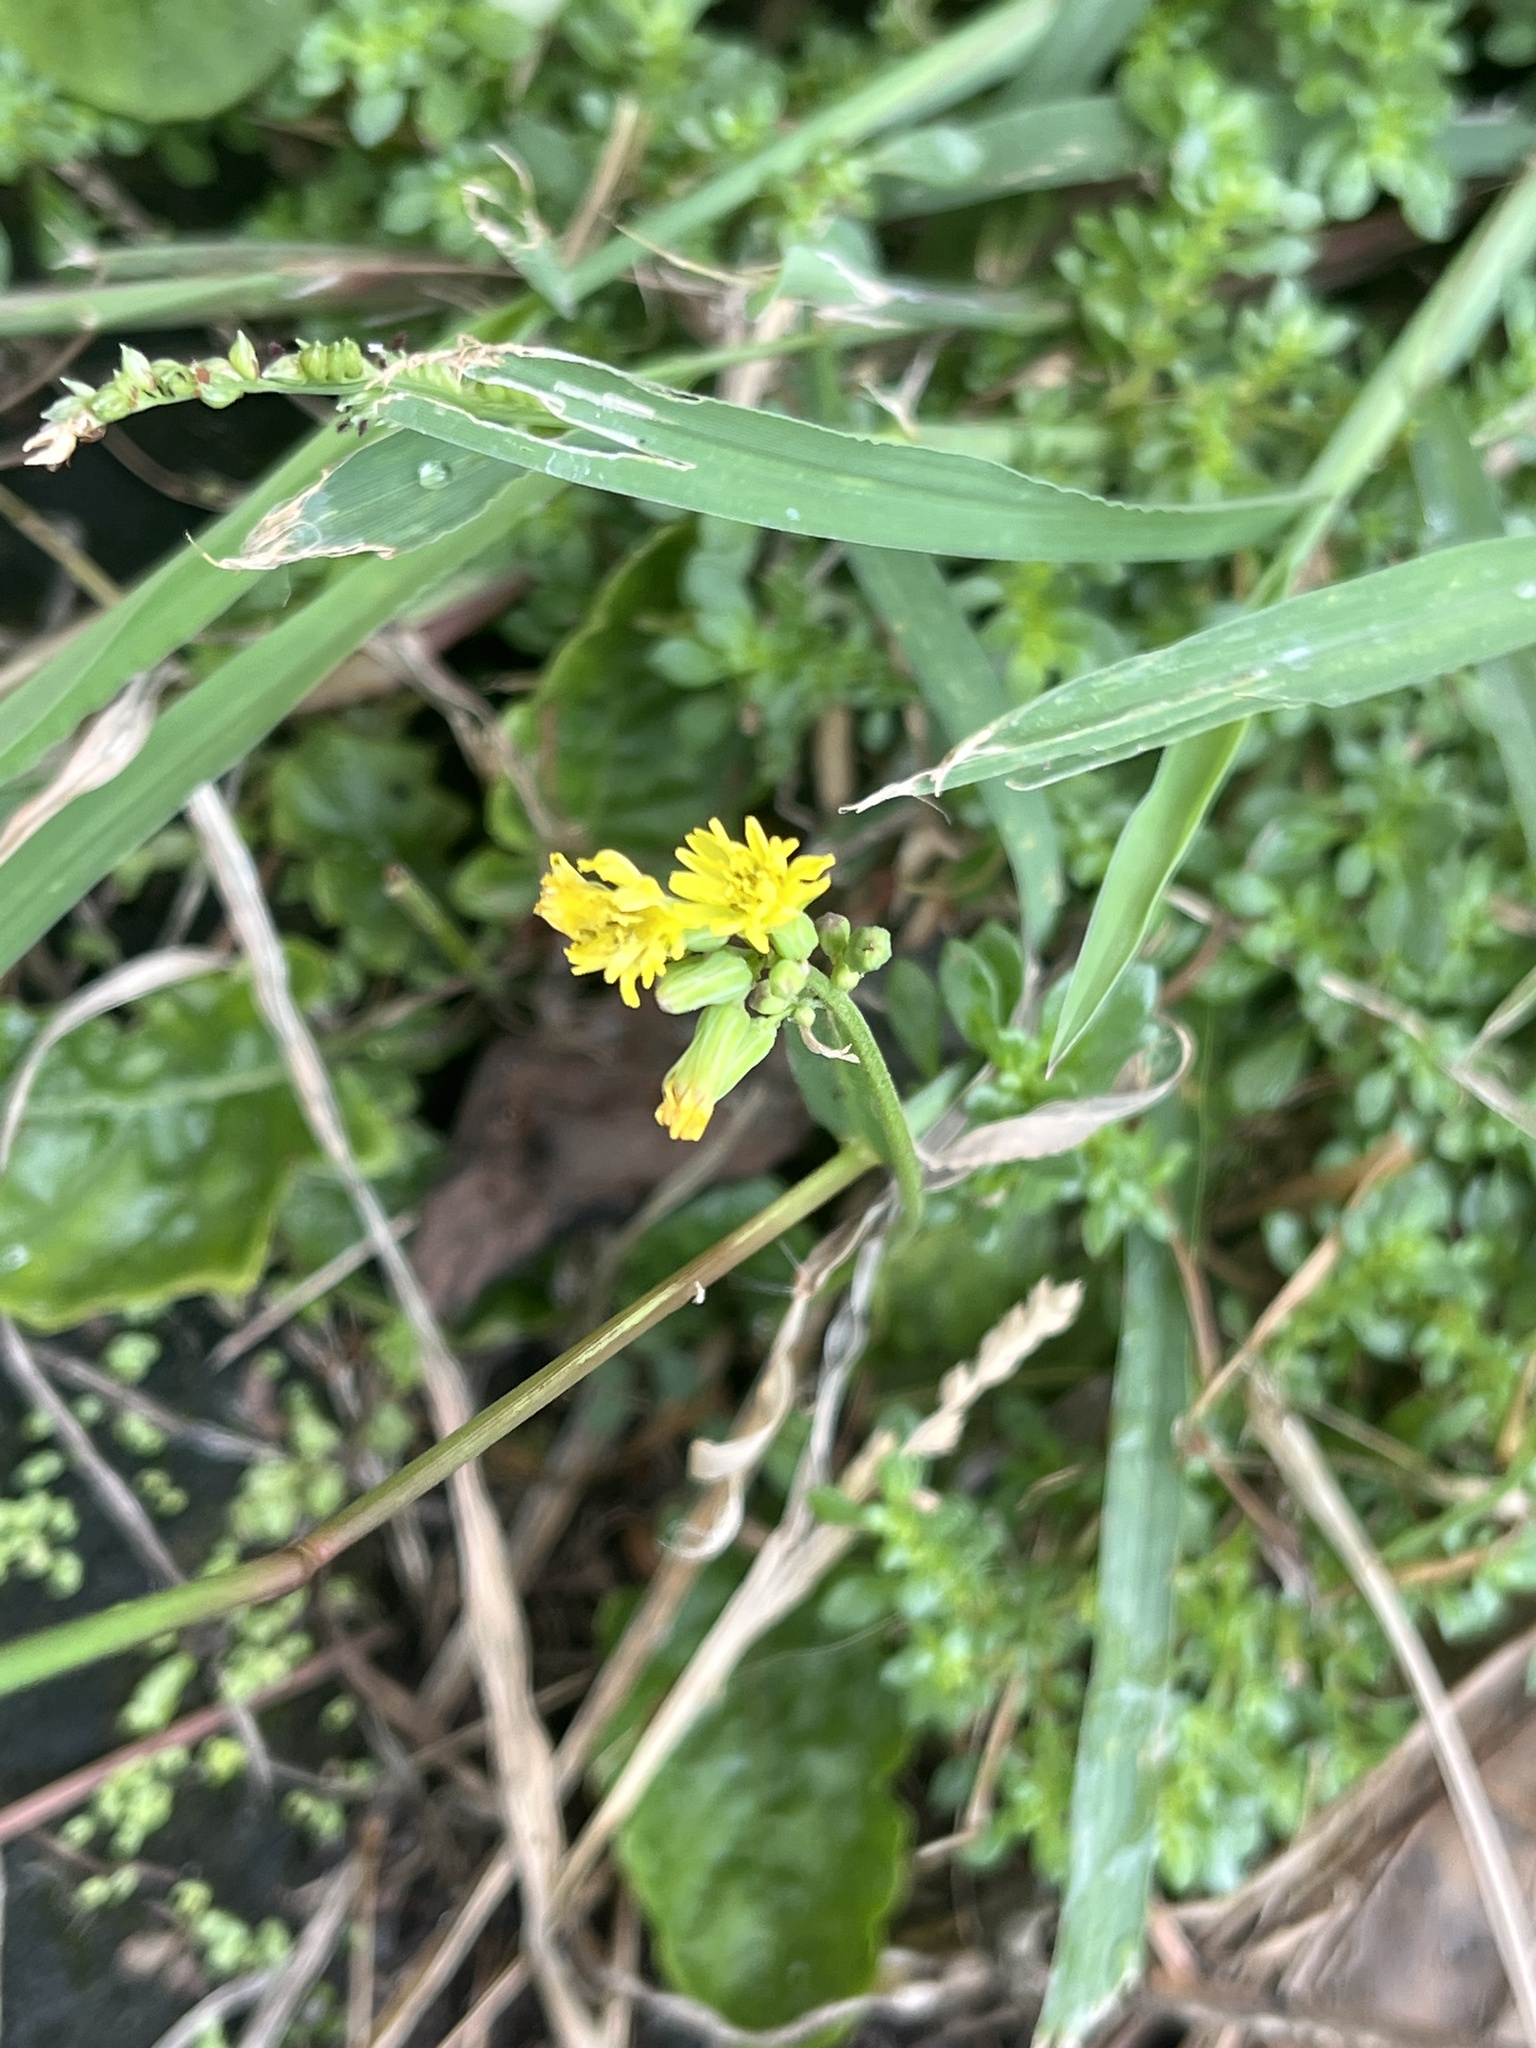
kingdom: Plantae
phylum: Tracheophyta
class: Magnoliopsida
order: Asterales
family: Asteraceae
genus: Youngia
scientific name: Youngia japonica
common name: Oriental false hawksbeard
